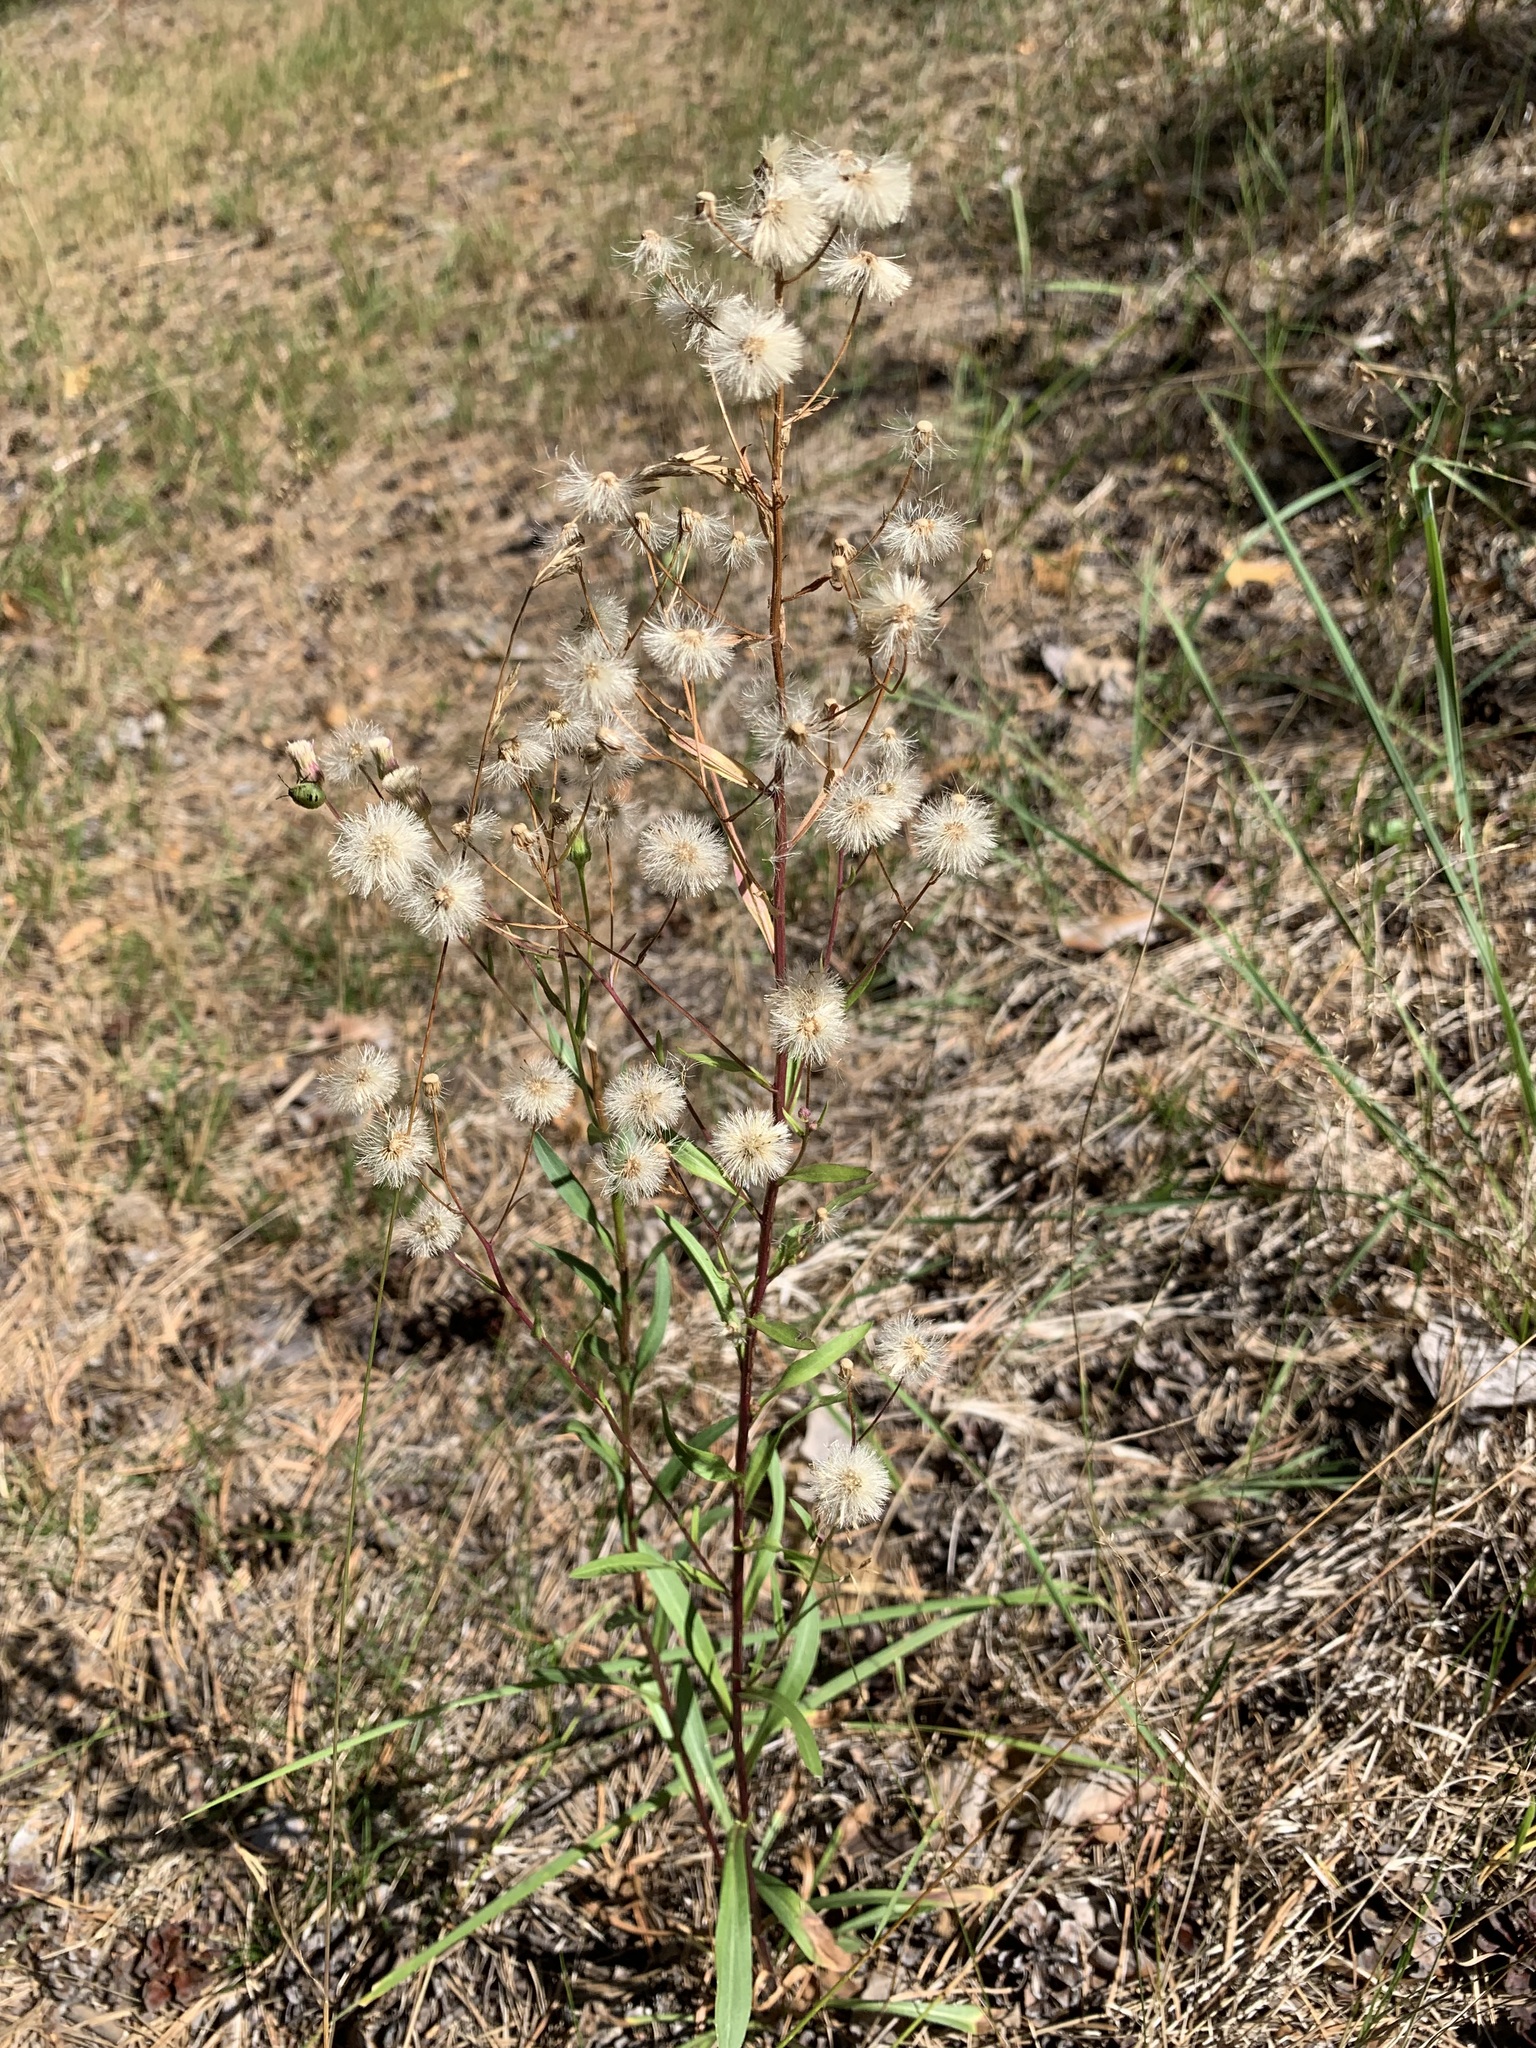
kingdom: Plantae
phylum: Tracheophyta
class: Magnoliopsida
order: Asterales
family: Asteraceae
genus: Erigeron
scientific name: Erigeron acris
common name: Blue fleabane
